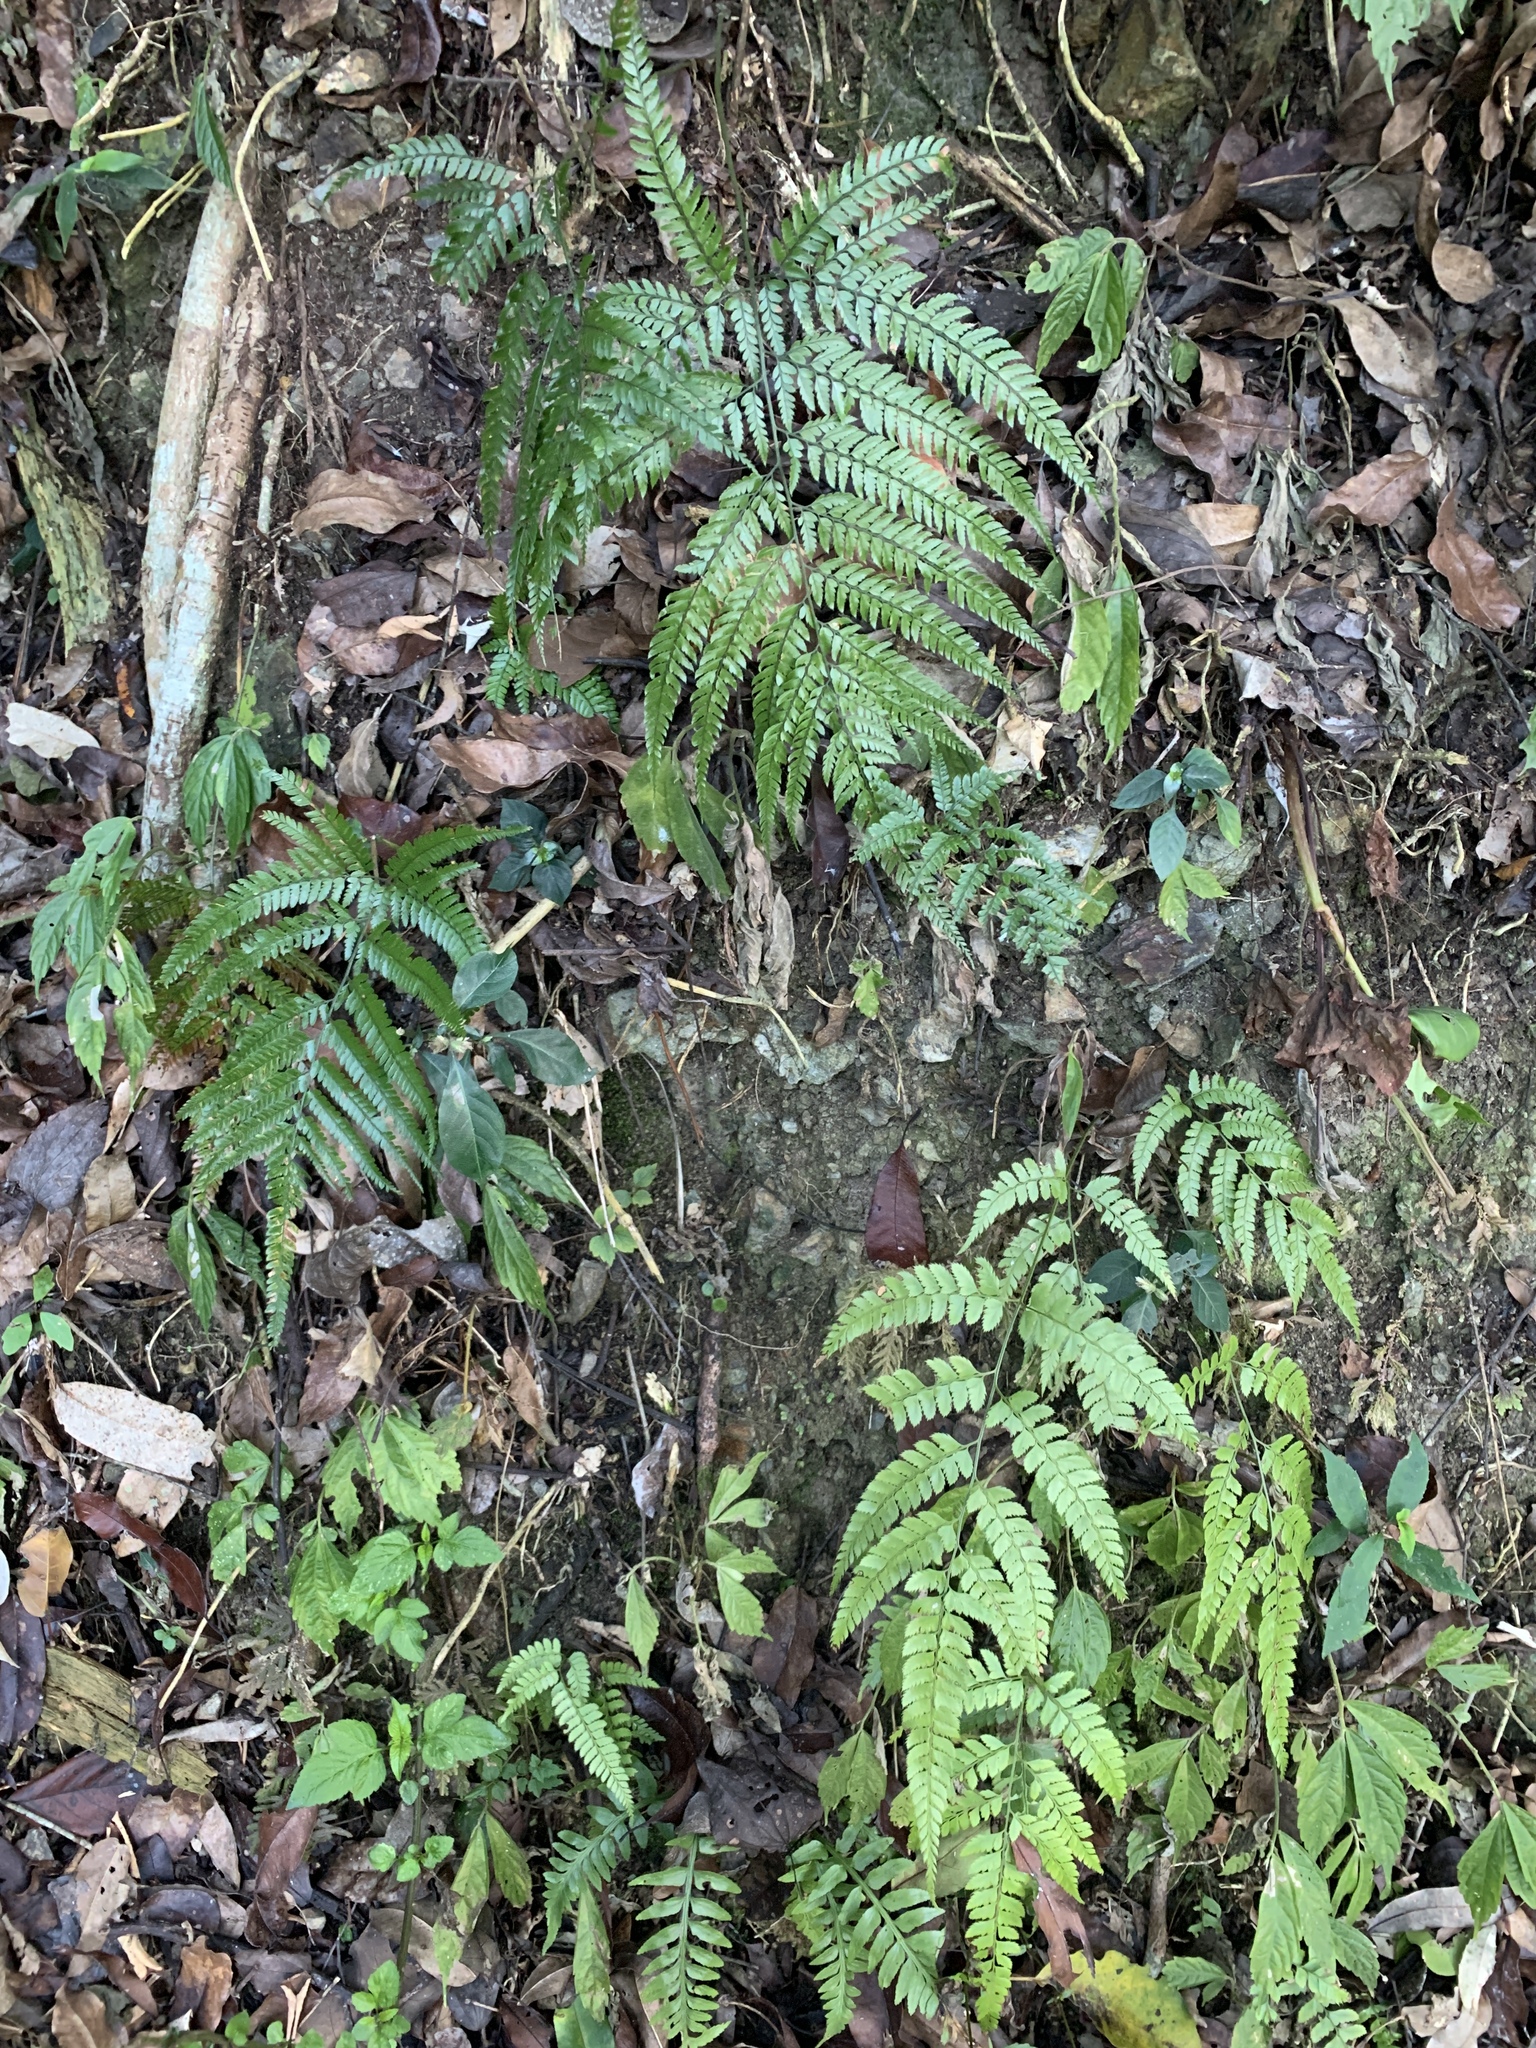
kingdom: Plantae
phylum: Tracheophyta
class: Polypodiopsida
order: Polypodiales
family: Dryopteridaceae
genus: Arachniodes
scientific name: Arachniodes aristata
